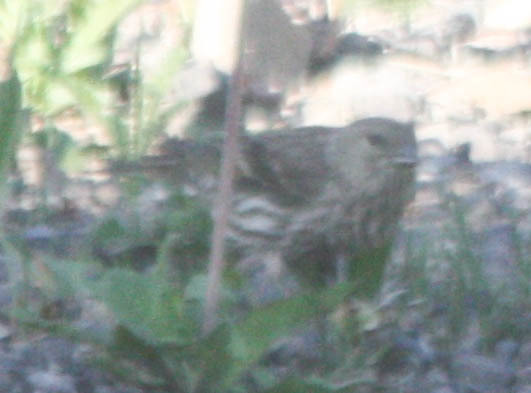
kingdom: Animalia
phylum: Chordata
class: Aves
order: Passeriformes
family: Fringillidae
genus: Spinus
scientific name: Spinus pinus
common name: Pine siskin
